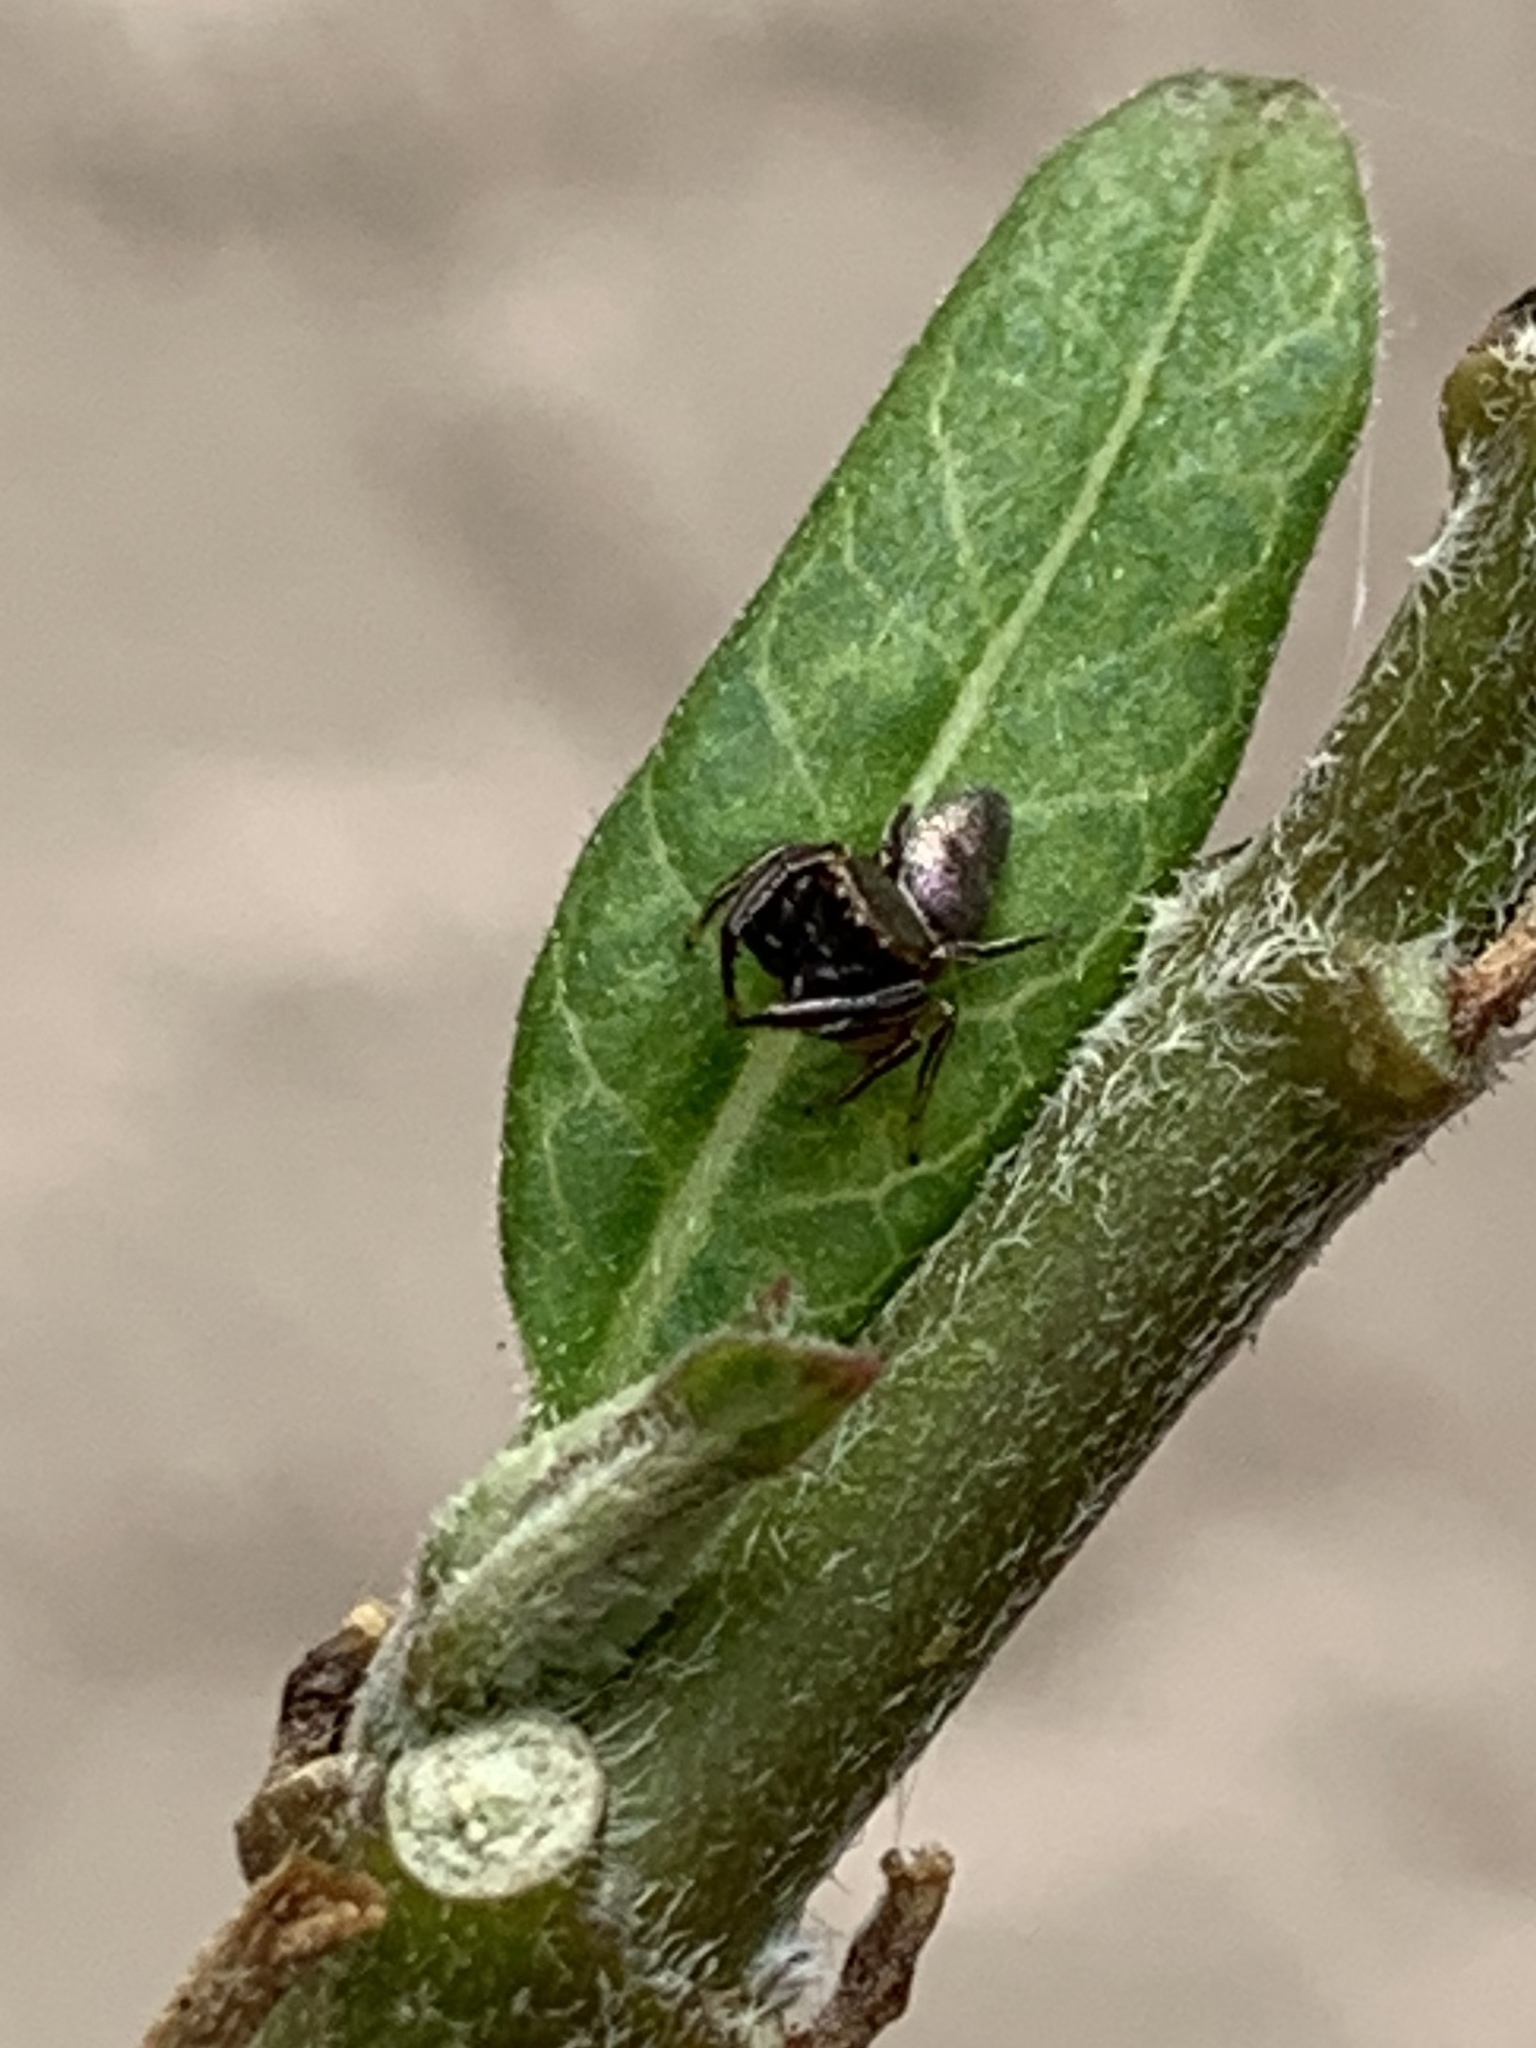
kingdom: Animalia
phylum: Arthropoda
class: Arachnida
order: Araneae
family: Salticidae
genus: Beata
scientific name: Beata wickhami
